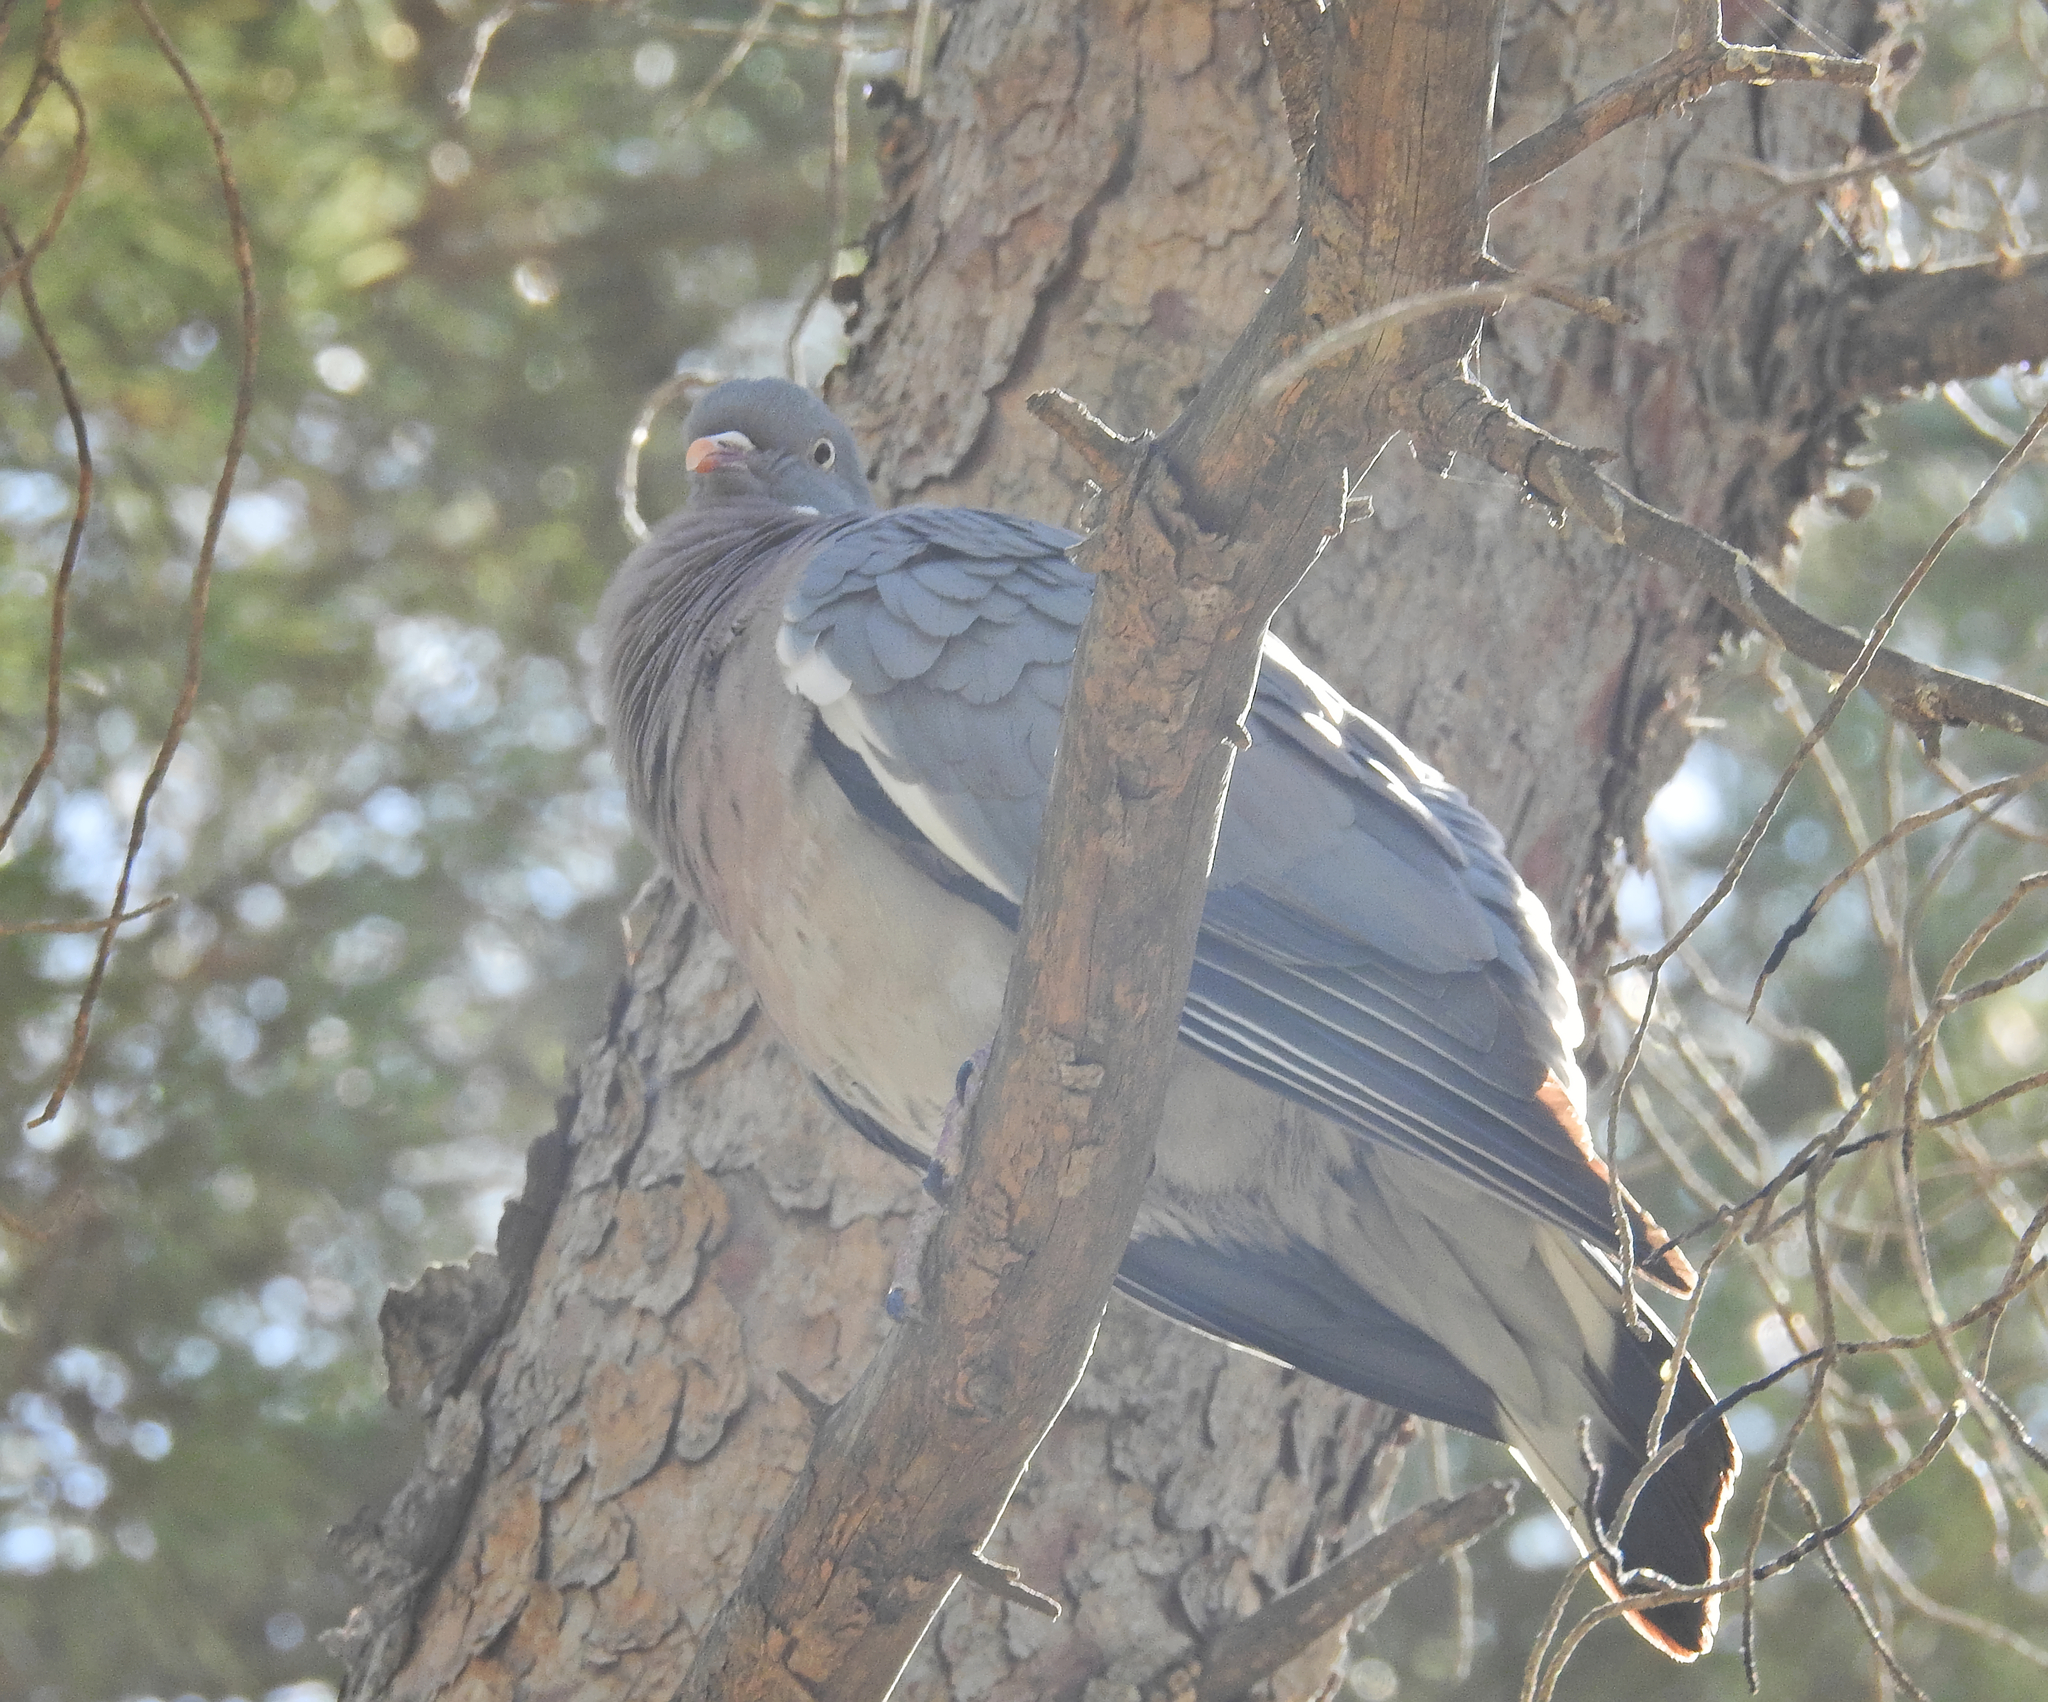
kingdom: Animalia
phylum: Chordata
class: Aves
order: Columbiformes
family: Columbidae
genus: Columba
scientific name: Columba palumbus
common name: Common wood pigeon
